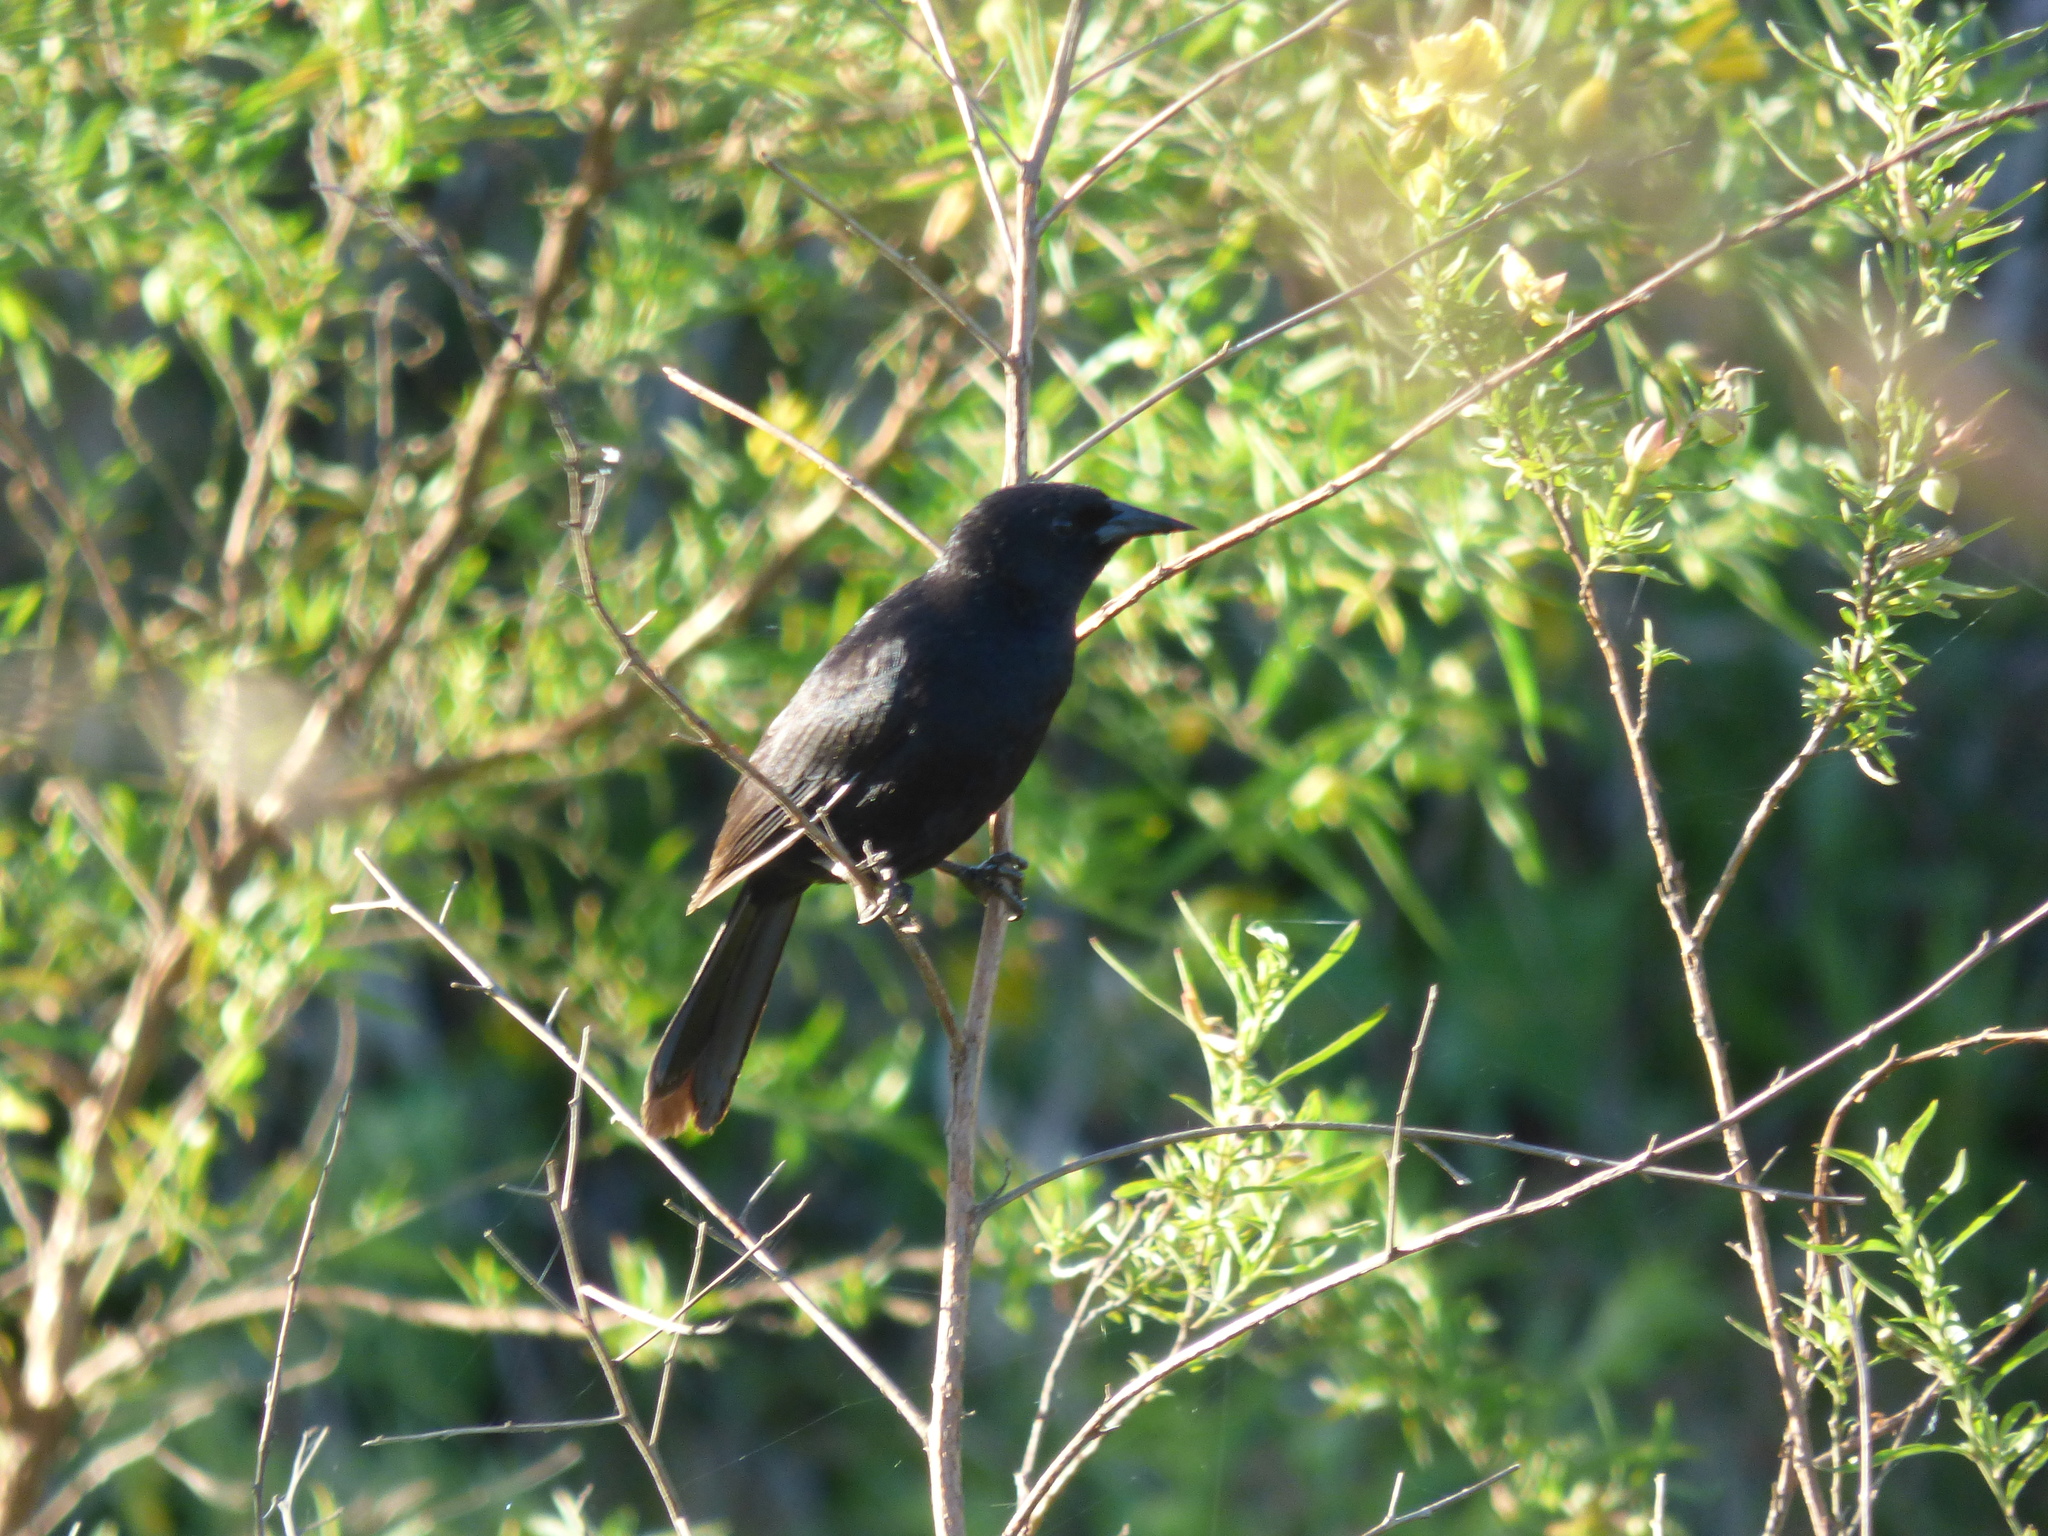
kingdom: Animalia
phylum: Chordata
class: Aves
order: Passeriformes
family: Icteridae
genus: Agelasticus
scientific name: Agelasticus cyanopus
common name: Unicolored blackbird
